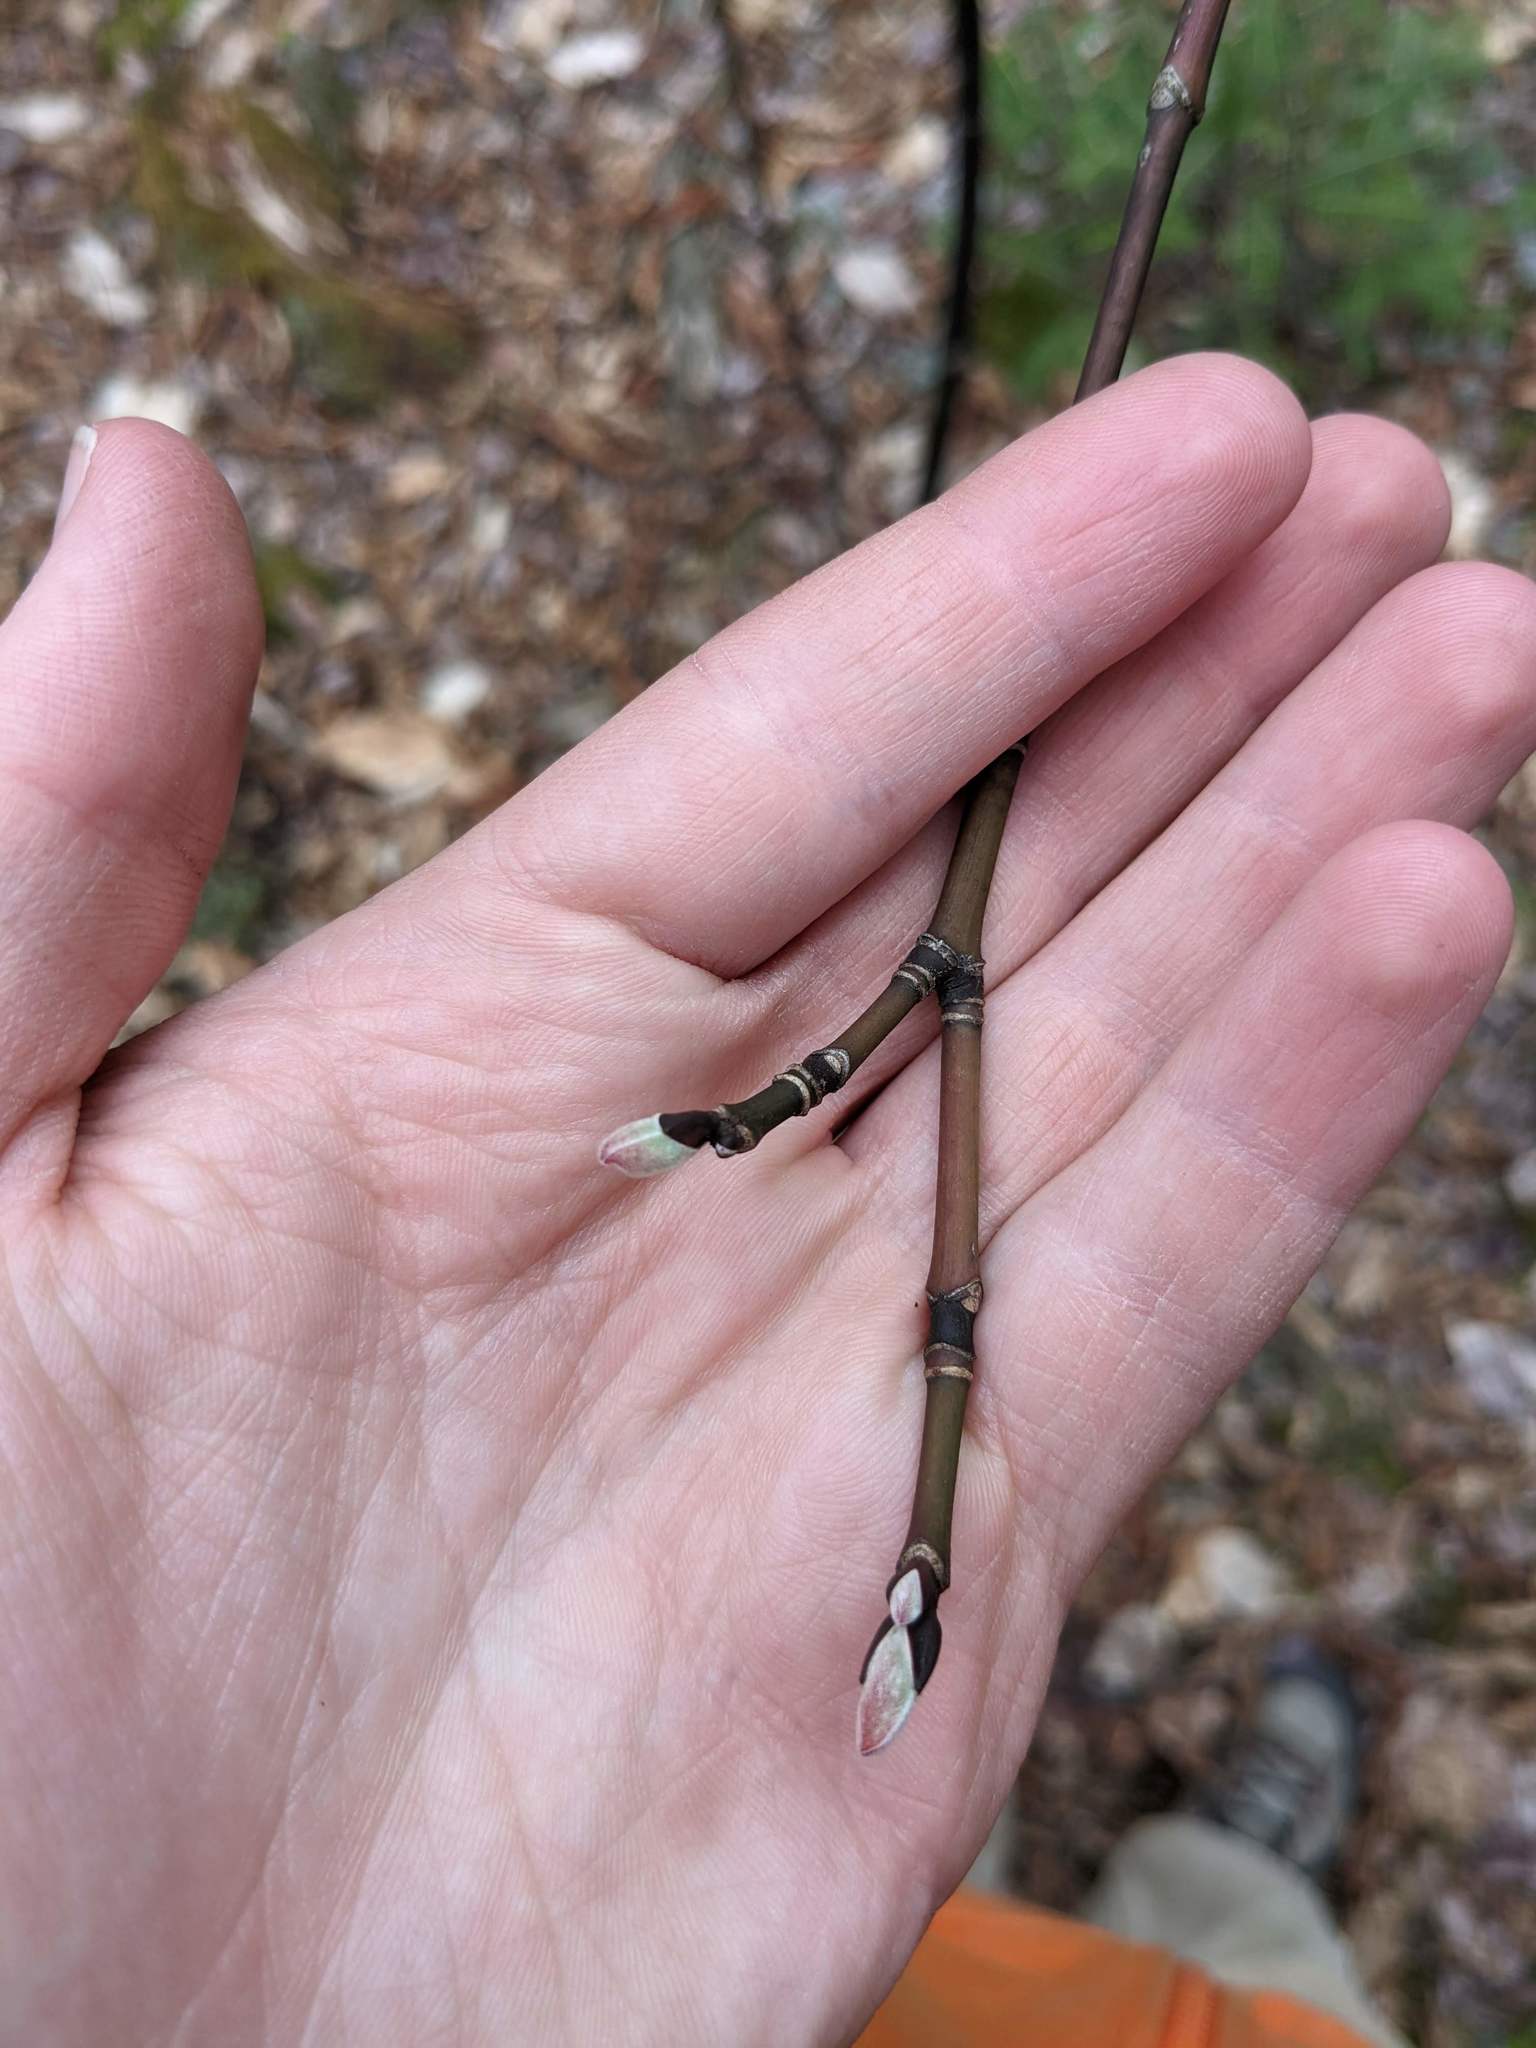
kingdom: Plantae
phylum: Tracheophyta
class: Magnoliopsida
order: Sapindales
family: Sapindaceae
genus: Acer
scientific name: Acer pensylvanicum
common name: Moosewood
